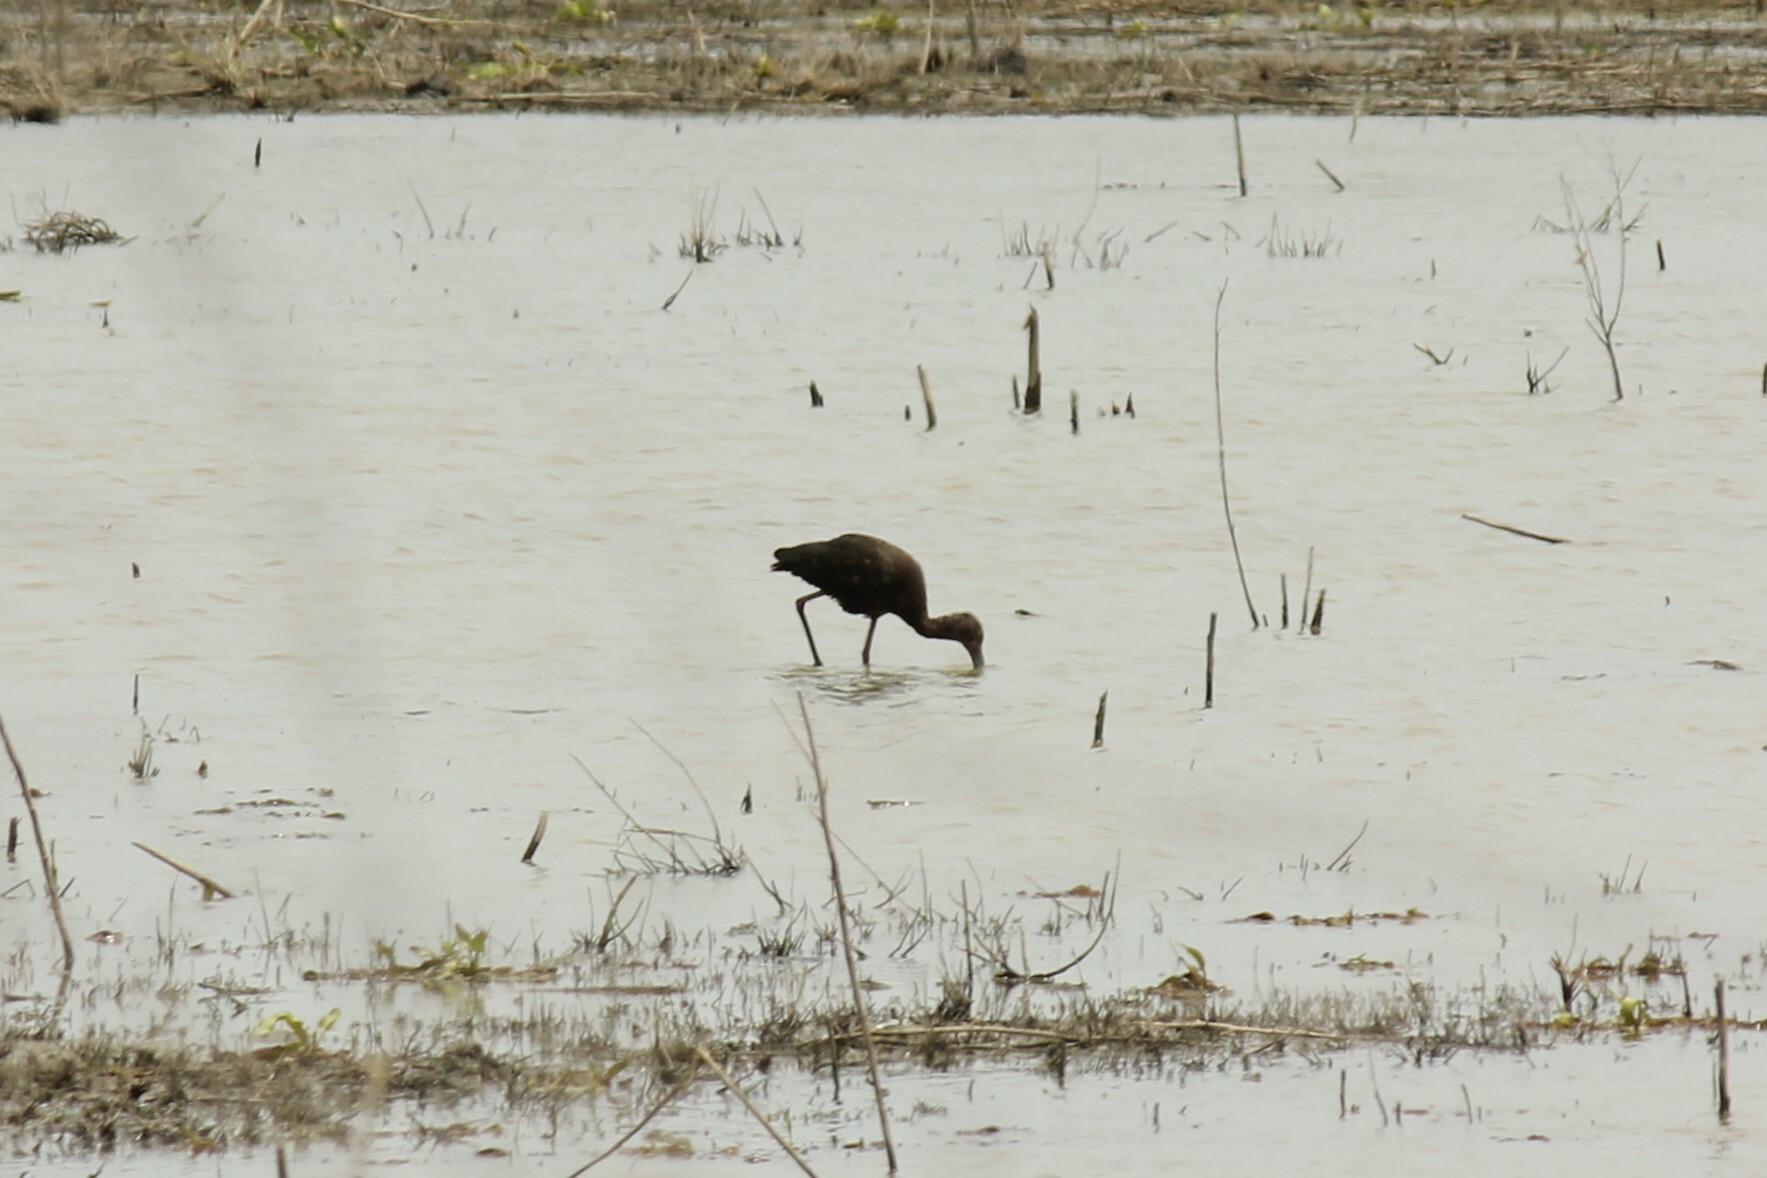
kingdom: Animalia
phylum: Chordata
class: Aves
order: Pelecaniformes
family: Threskiornithidae
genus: Plegadis
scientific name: Plegadis chihi
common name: White-faced ibis
